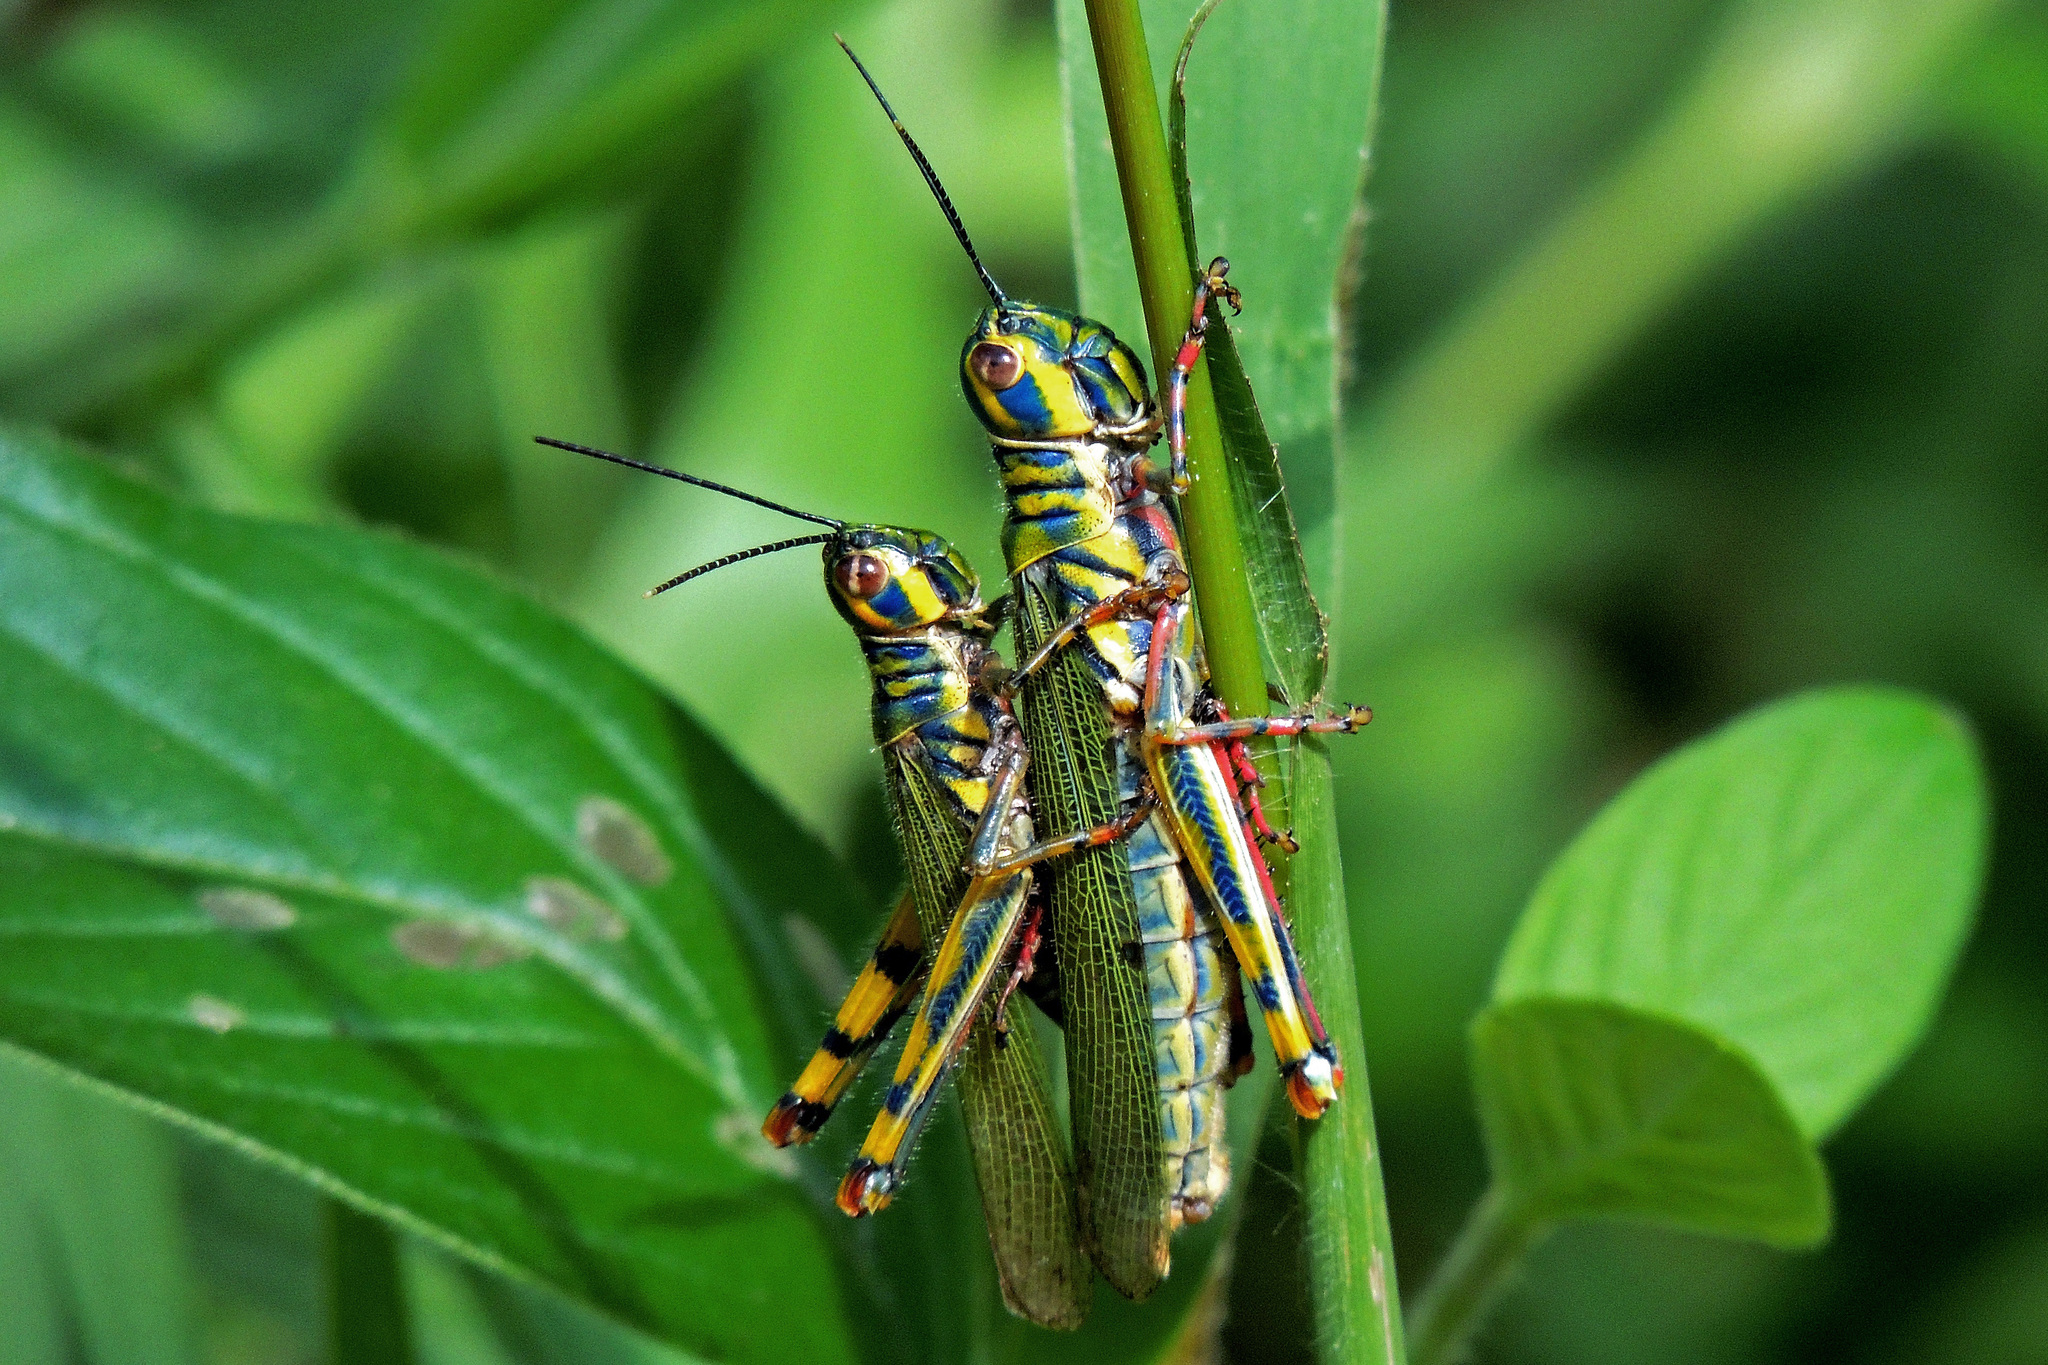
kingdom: Animalia
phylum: Arthropoda
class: Insecta
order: Orthoptera
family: Acrididae
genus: Adimantus
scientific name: Adimantus ornatissimus
